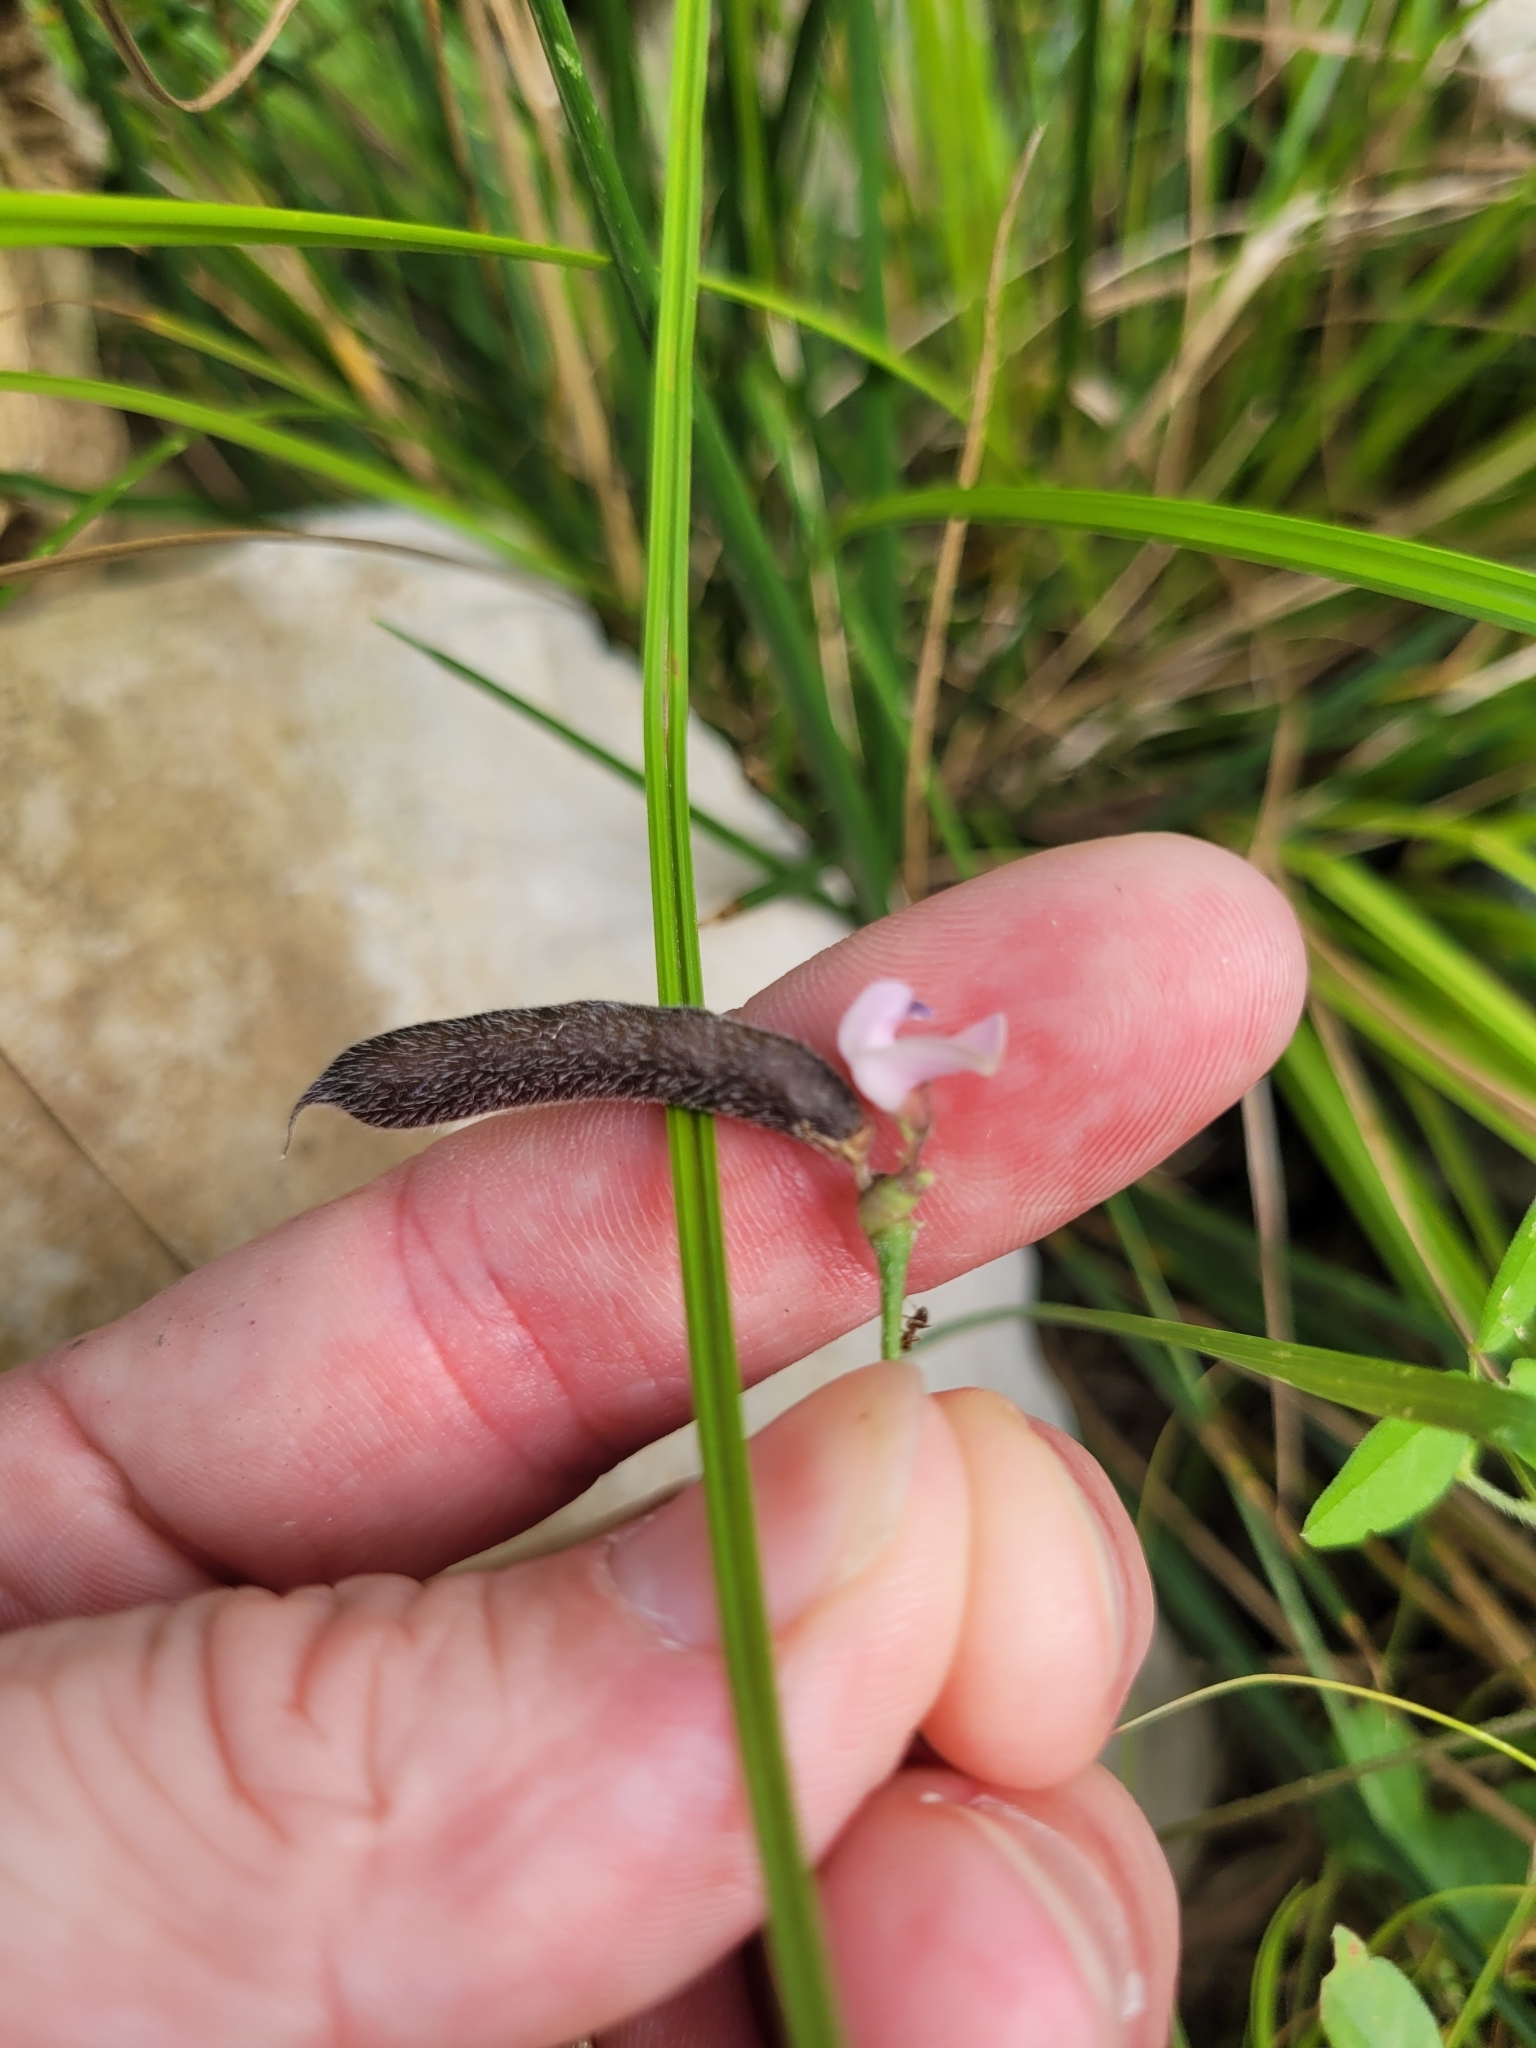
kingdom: Plantae
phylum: Tracheophyta
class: Magnoliopsida
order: Fabales
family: Fabaceae
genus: Strophostyles
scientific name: Strophostyles leiosperma
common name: Smooth-seed wild bean
